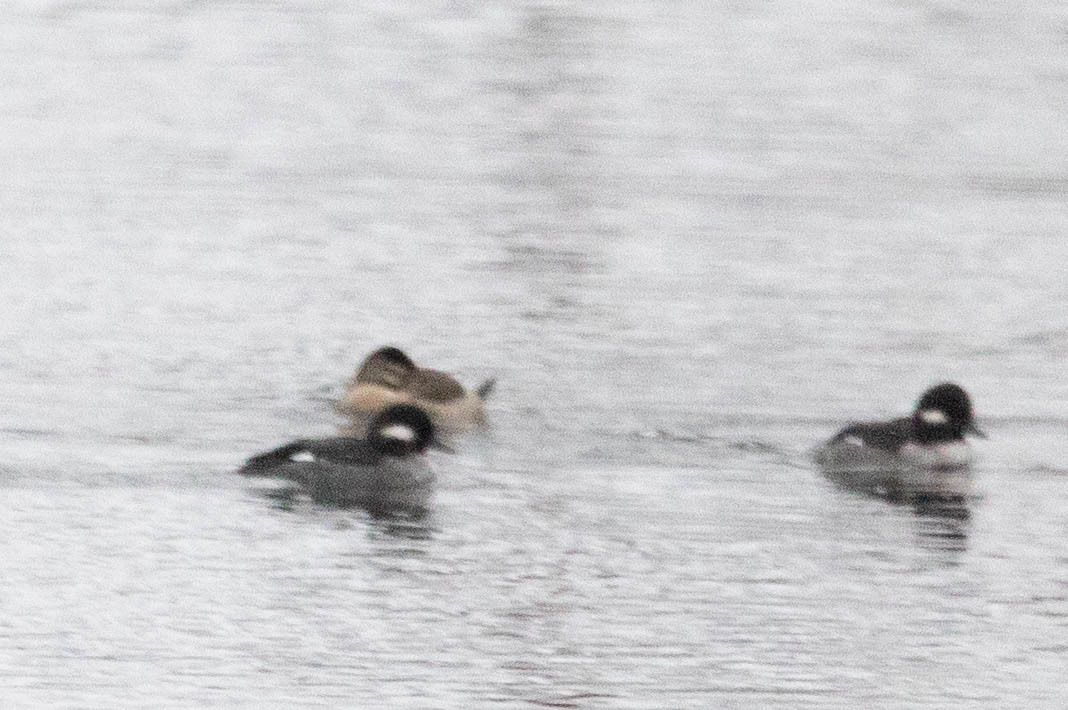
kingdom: Animalia
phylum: Chordata
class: Aves
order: Anseriformes
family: Anatidae
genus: Oxyura
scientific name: Oxyura jamaicensis
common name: Ruddy duck
